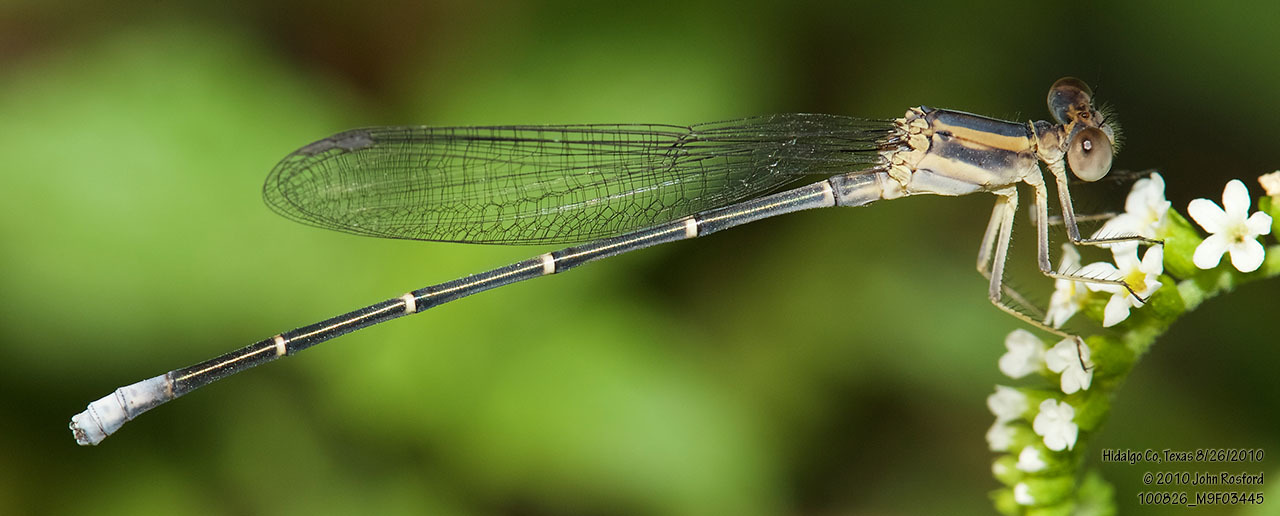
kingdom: Animalia
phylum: Arthropoda
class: Insecta
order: Odonata
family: Coenagrionidae
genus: Argia
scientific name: Argia moesta
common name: Powdered dancer
